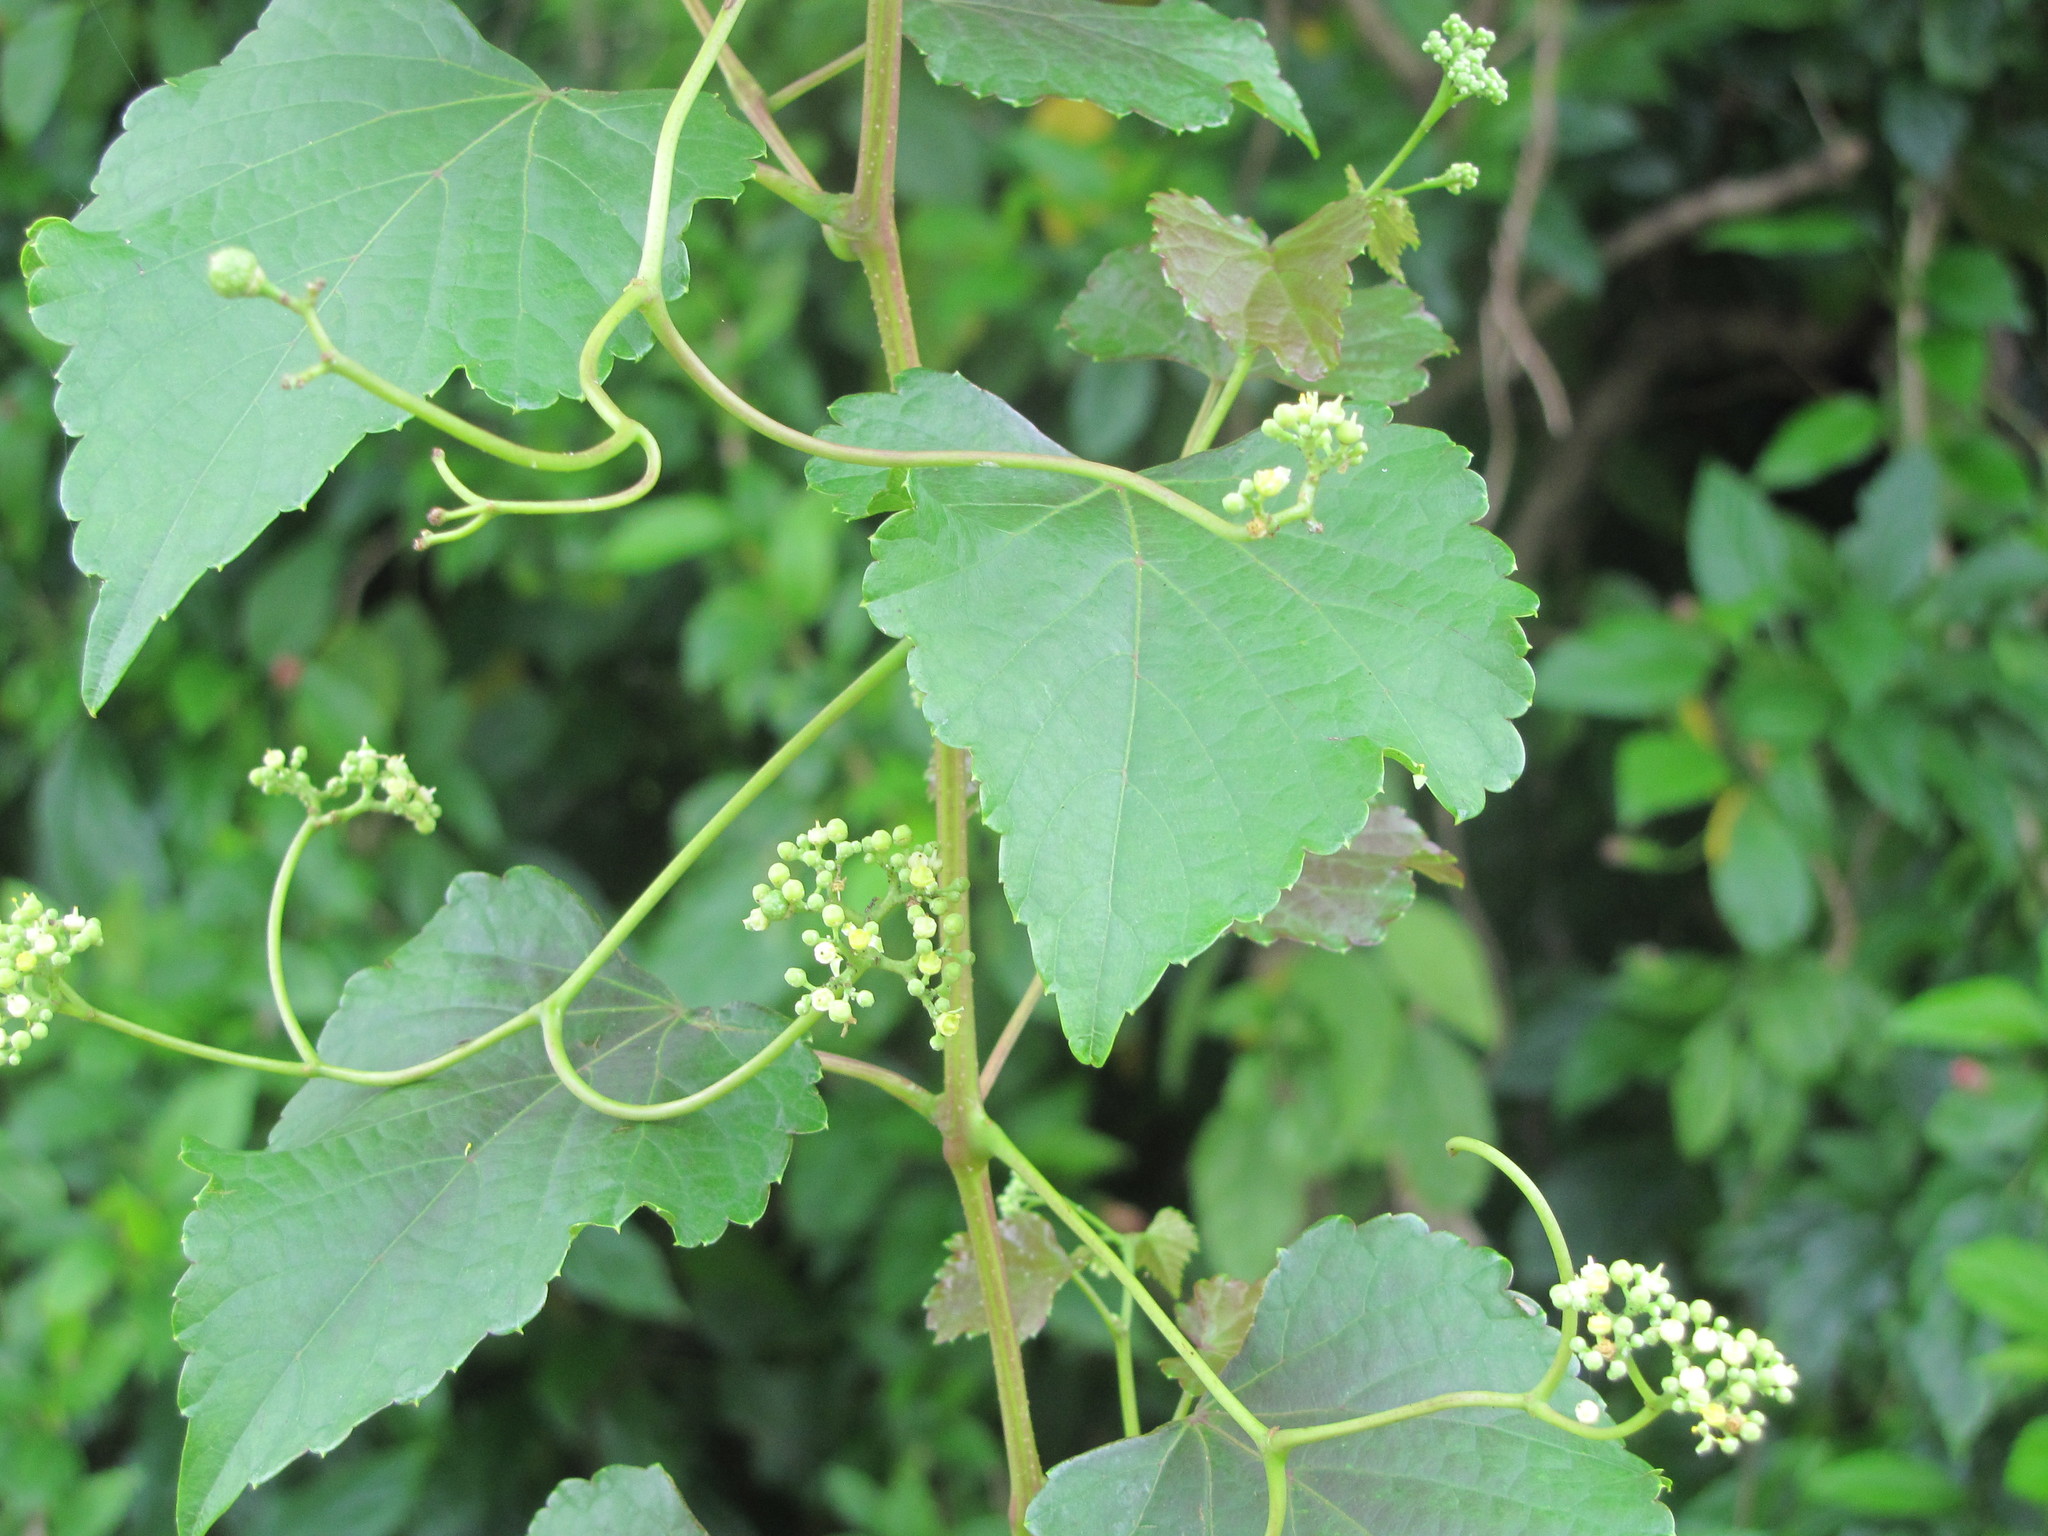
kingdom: Plantae
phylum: Tracheophyta
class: Magnoliopsida
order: Vitales
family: Vitaceae
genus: Ampelopsis
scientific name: Ampelopsis glandulosa
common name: Amur peppervine
